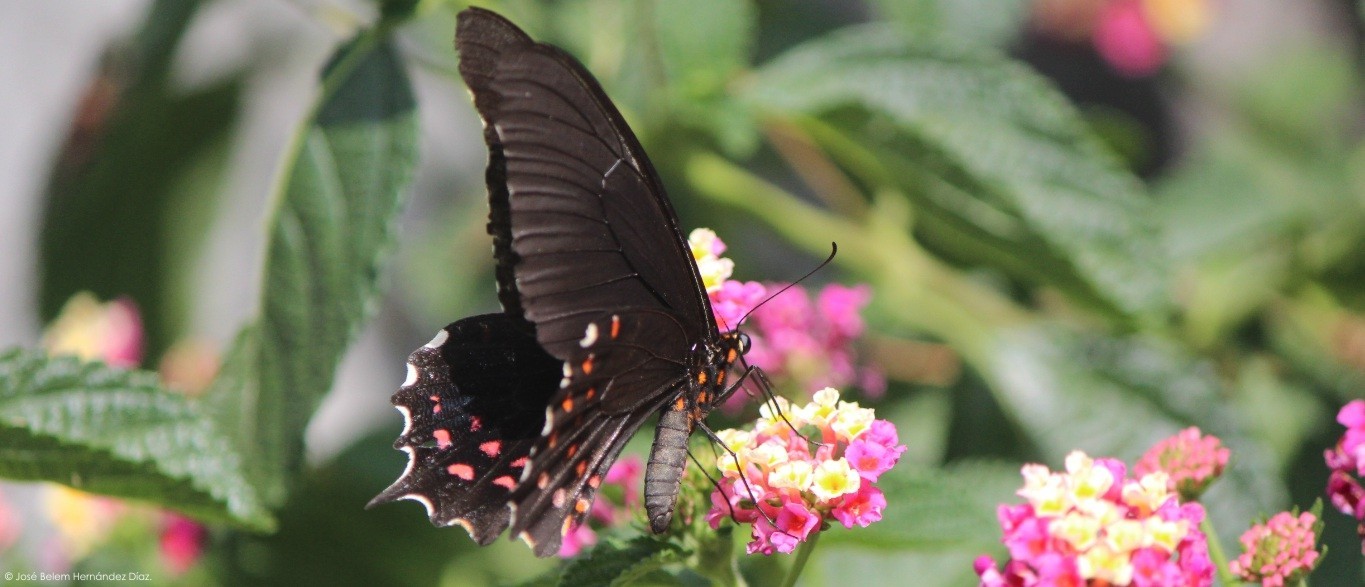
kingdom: Animalia
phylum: Arthropoda
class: Insecta
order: Lepidoptera
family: Papilionidae
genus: Heraclides
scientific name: Heraclides rogeri
